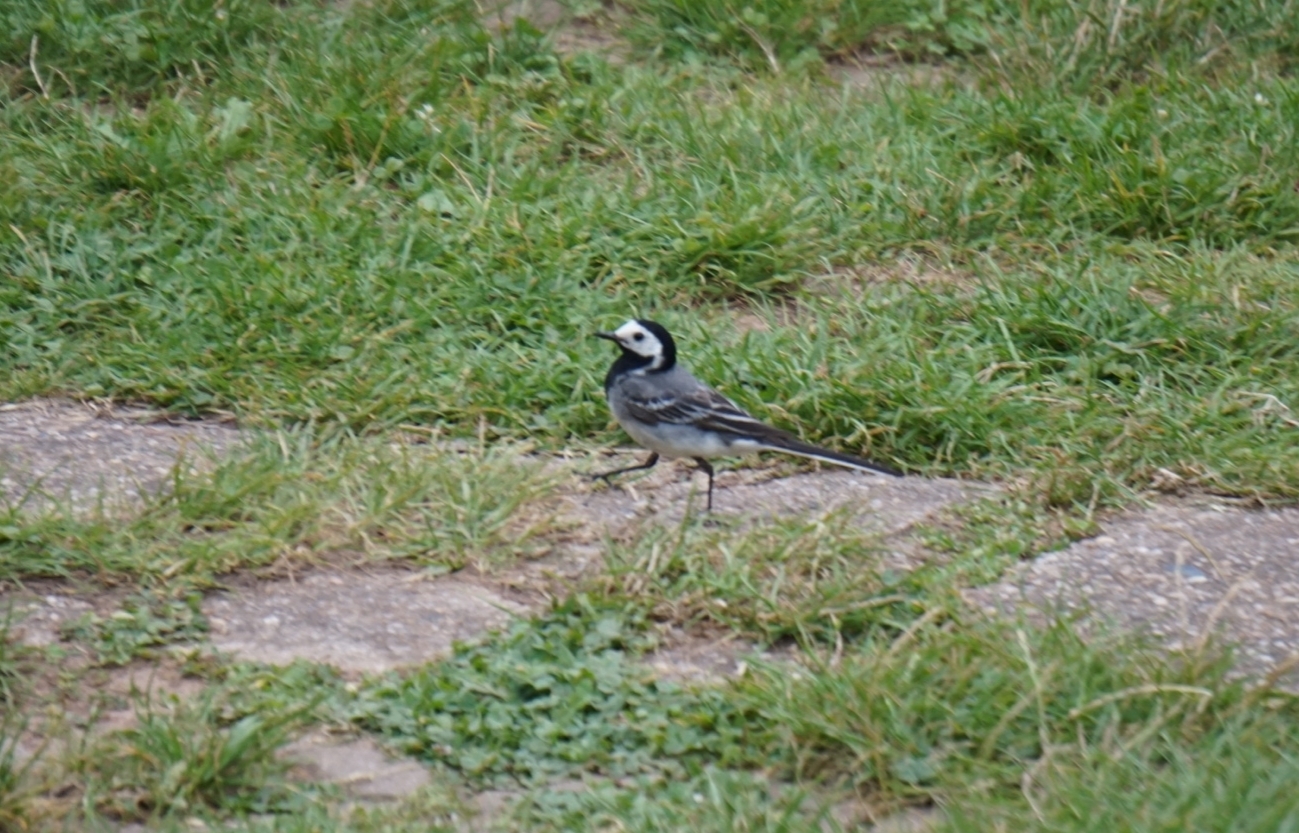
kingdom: Animalia
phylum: Chordata
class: Aves
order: Passeriformes
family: Motacillidae
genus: Motacilla
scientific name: Motacilla alba
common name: White wagtail
